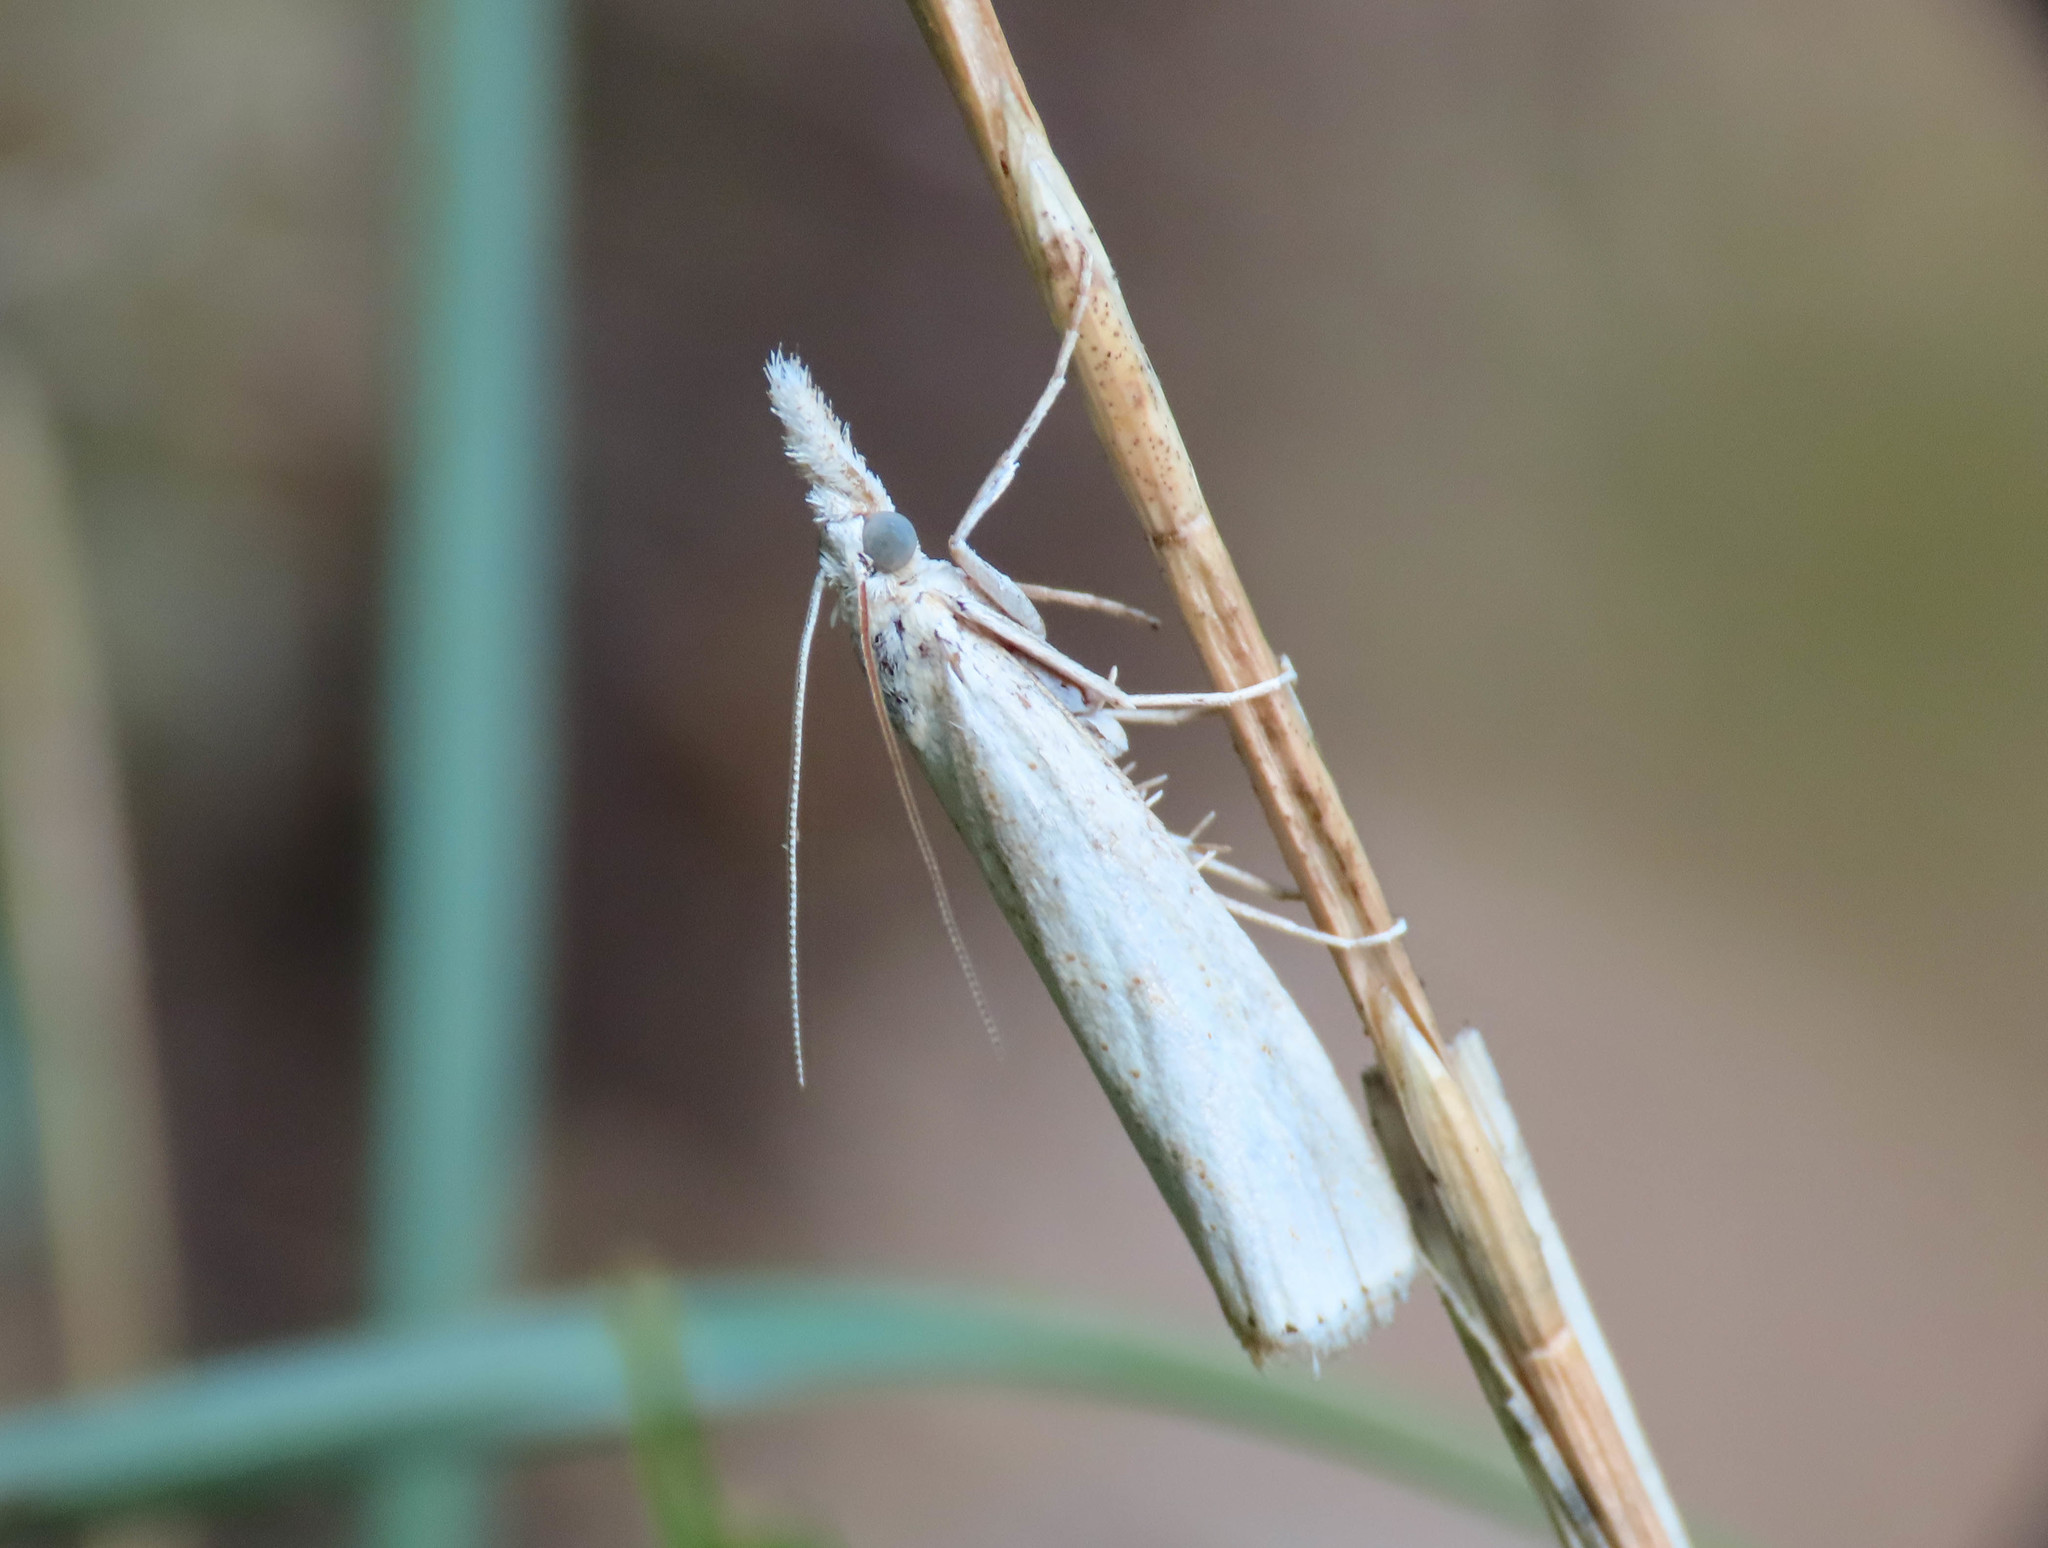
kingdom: Animalia
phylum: Arthropoda
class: Insecta
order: Lepidoptera
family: Crambidae
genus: Agriphila
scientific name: Agriphila straminella
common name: Straw grass-veneer
